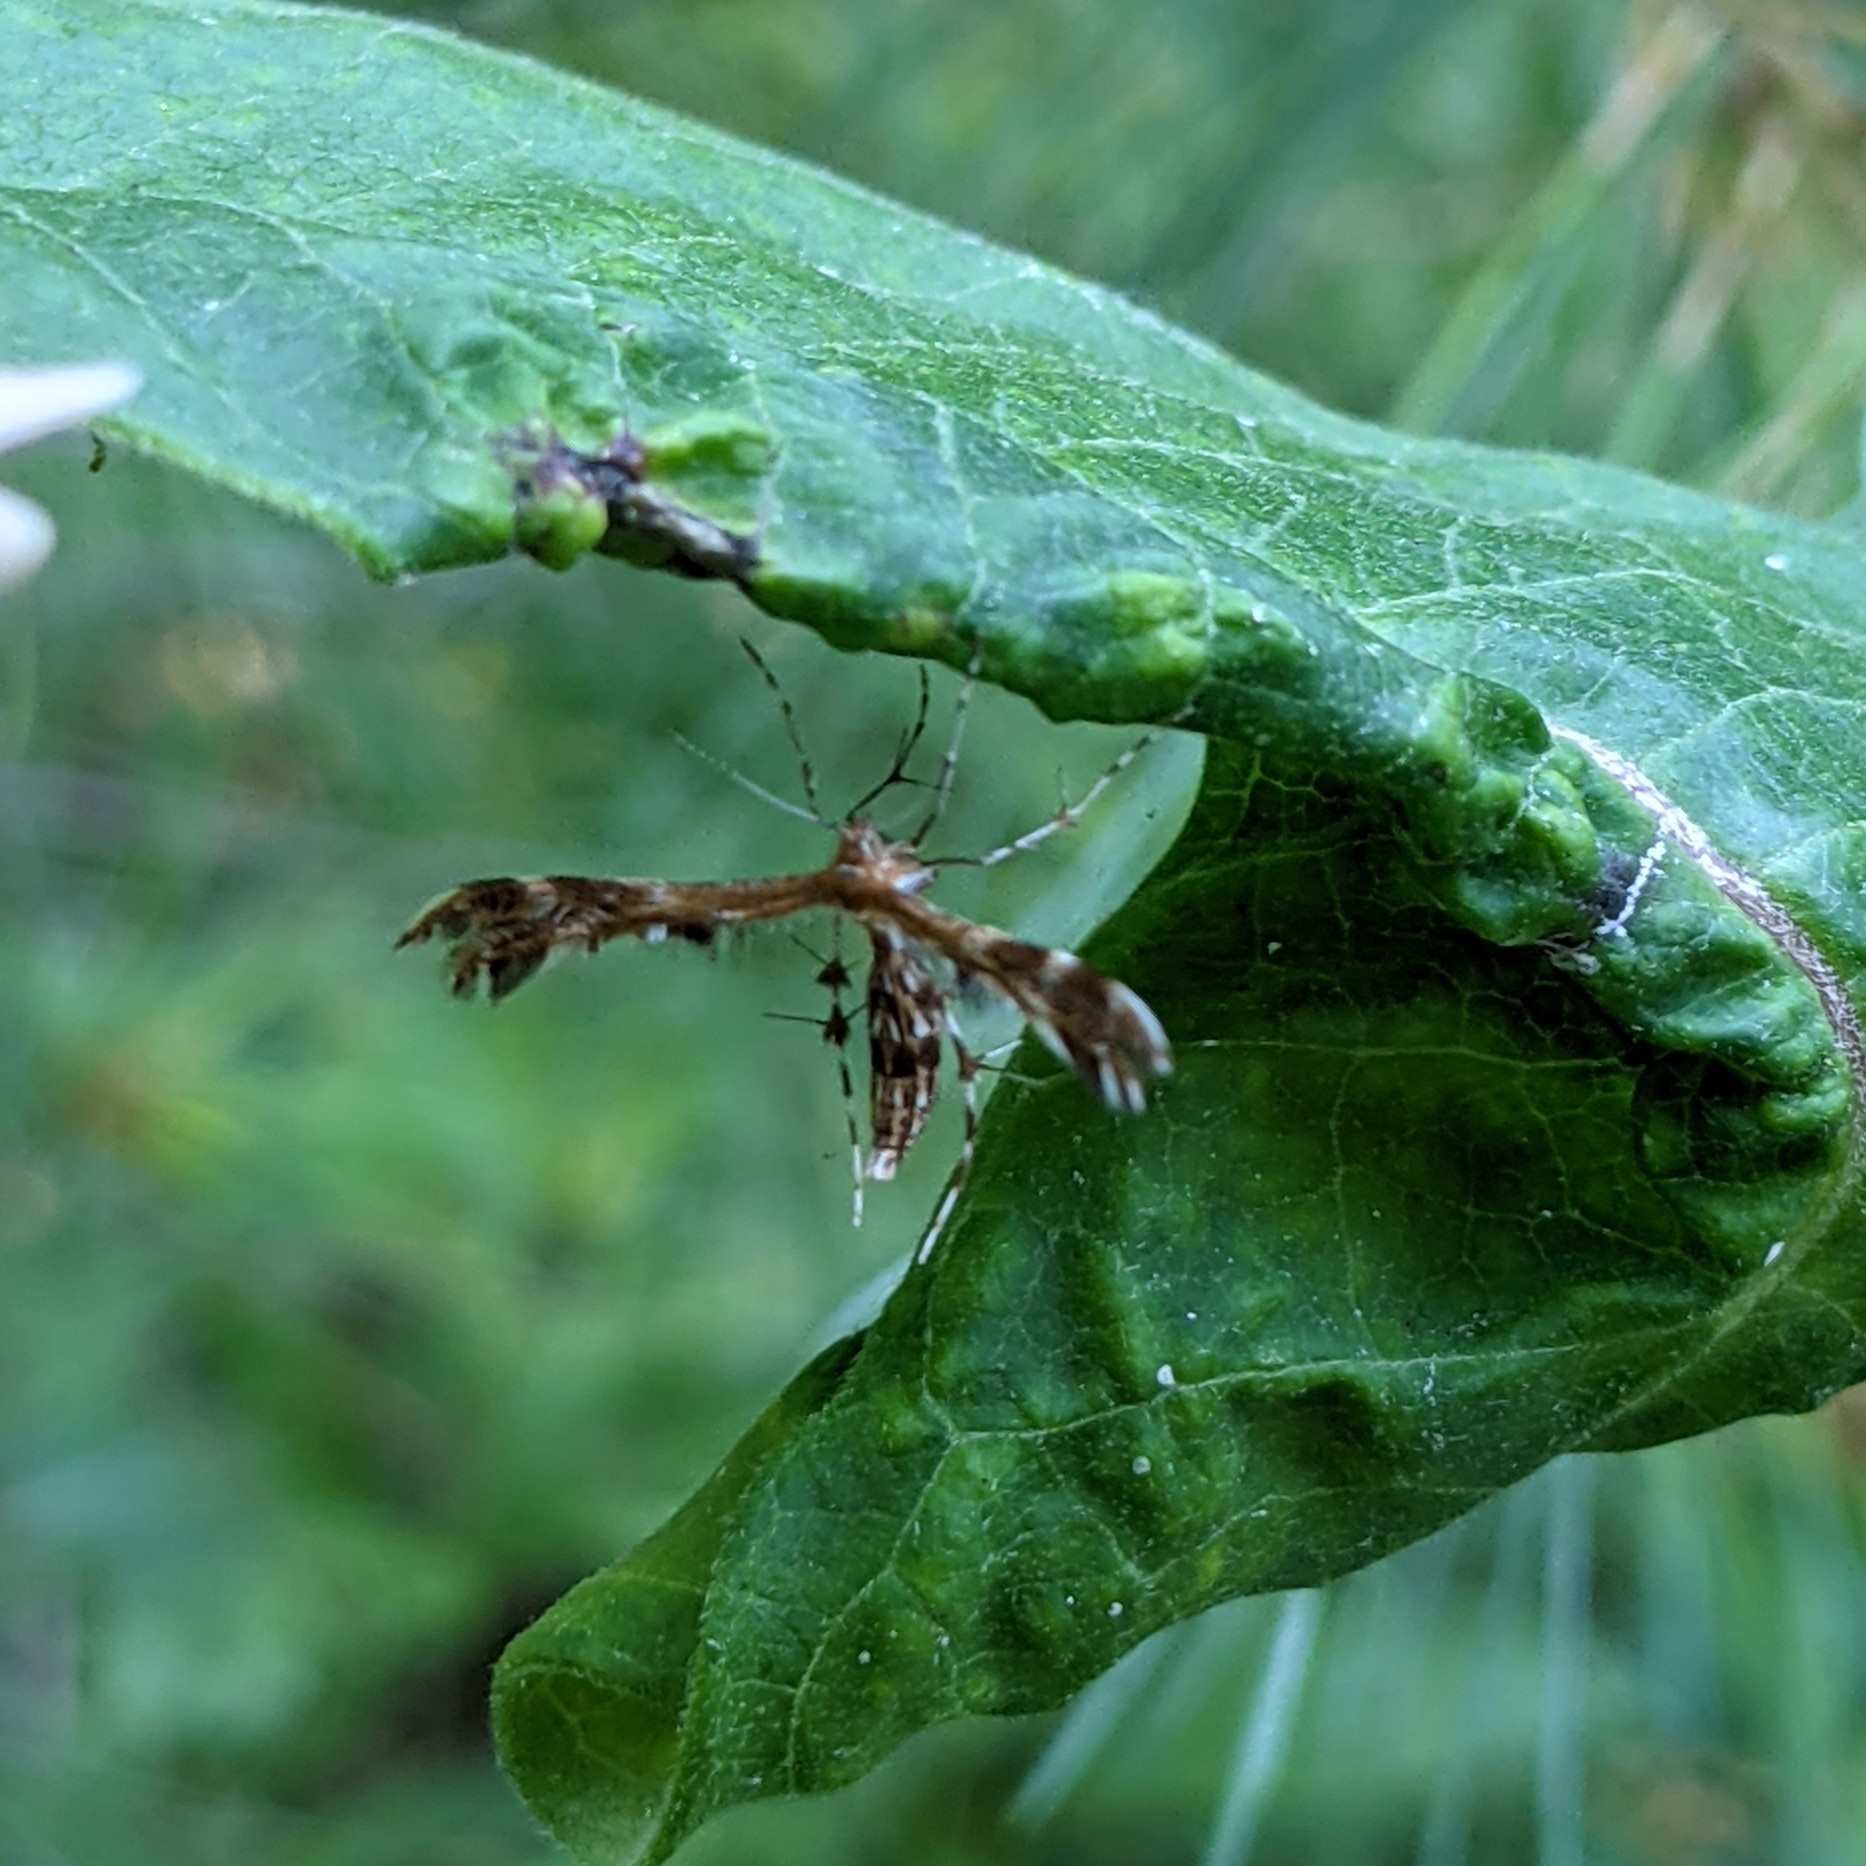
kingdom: Animalia
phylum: Arthropoda
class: Insecta
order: Lepidoptera
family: Pterophoridae
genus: Dejongia
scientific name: Dejongia lobidactylus
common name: Lobed plume moth
